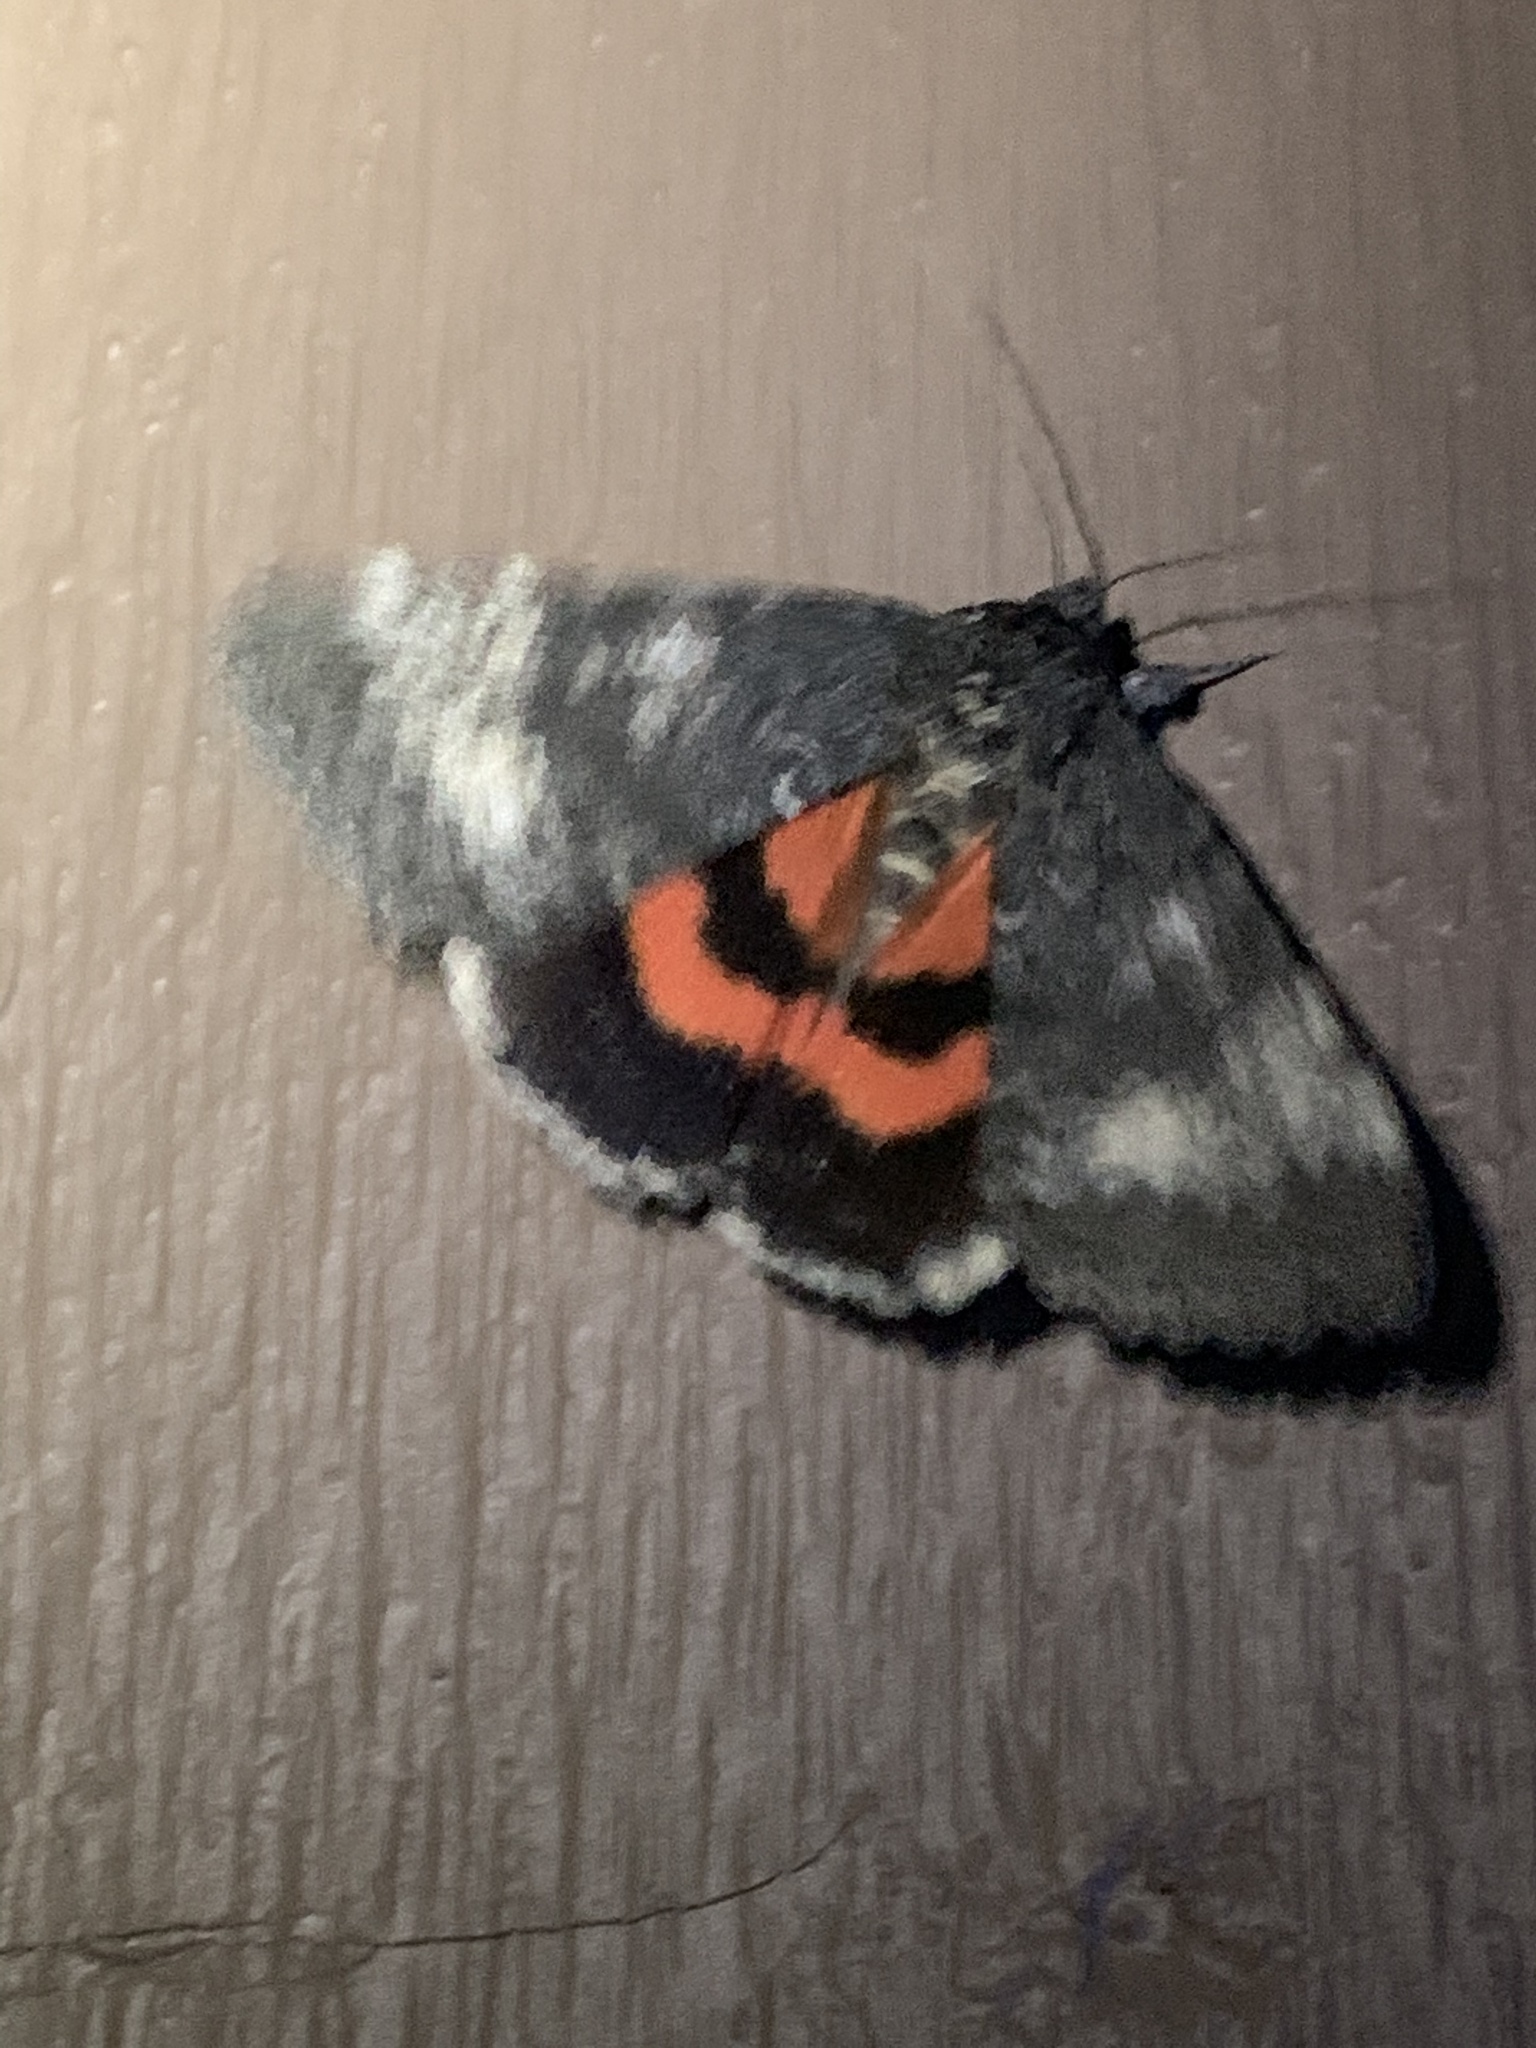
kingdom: Animalia
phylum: Arthropoda
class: Insecta
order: Lepidoptera
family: Erebidae
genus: Catocala
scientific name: Catocala briseis
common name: Briseis underwing
